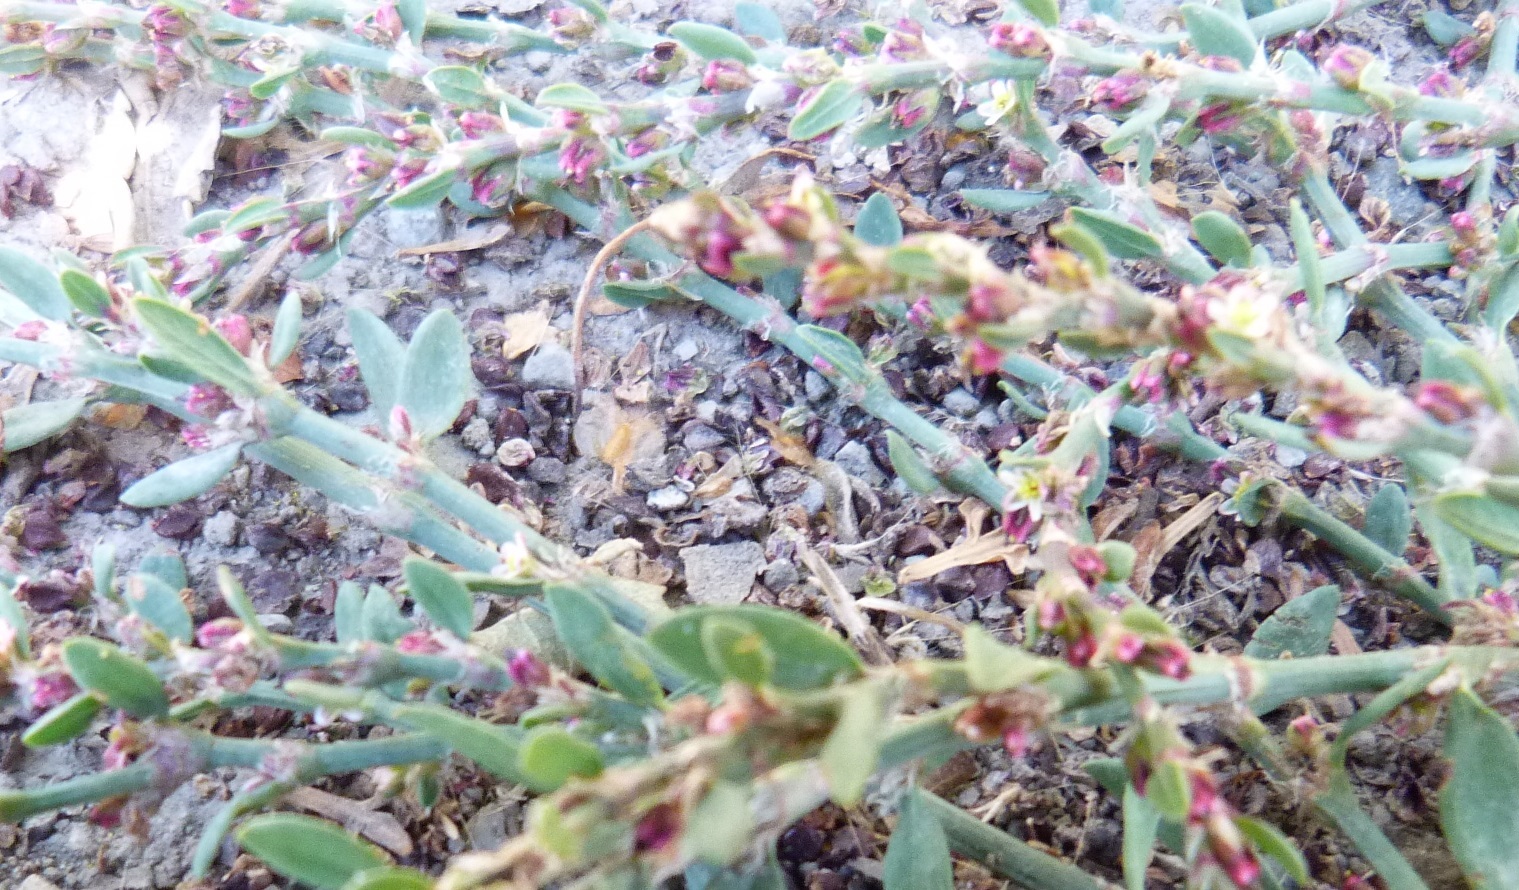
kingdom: Plantae
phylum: Tracheophyta
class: Magnoliopsida
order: Caryophyllales
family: Polygonaceae
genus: Polygonum
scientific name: Polygonum aviculare
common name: Prostrate knotweed
